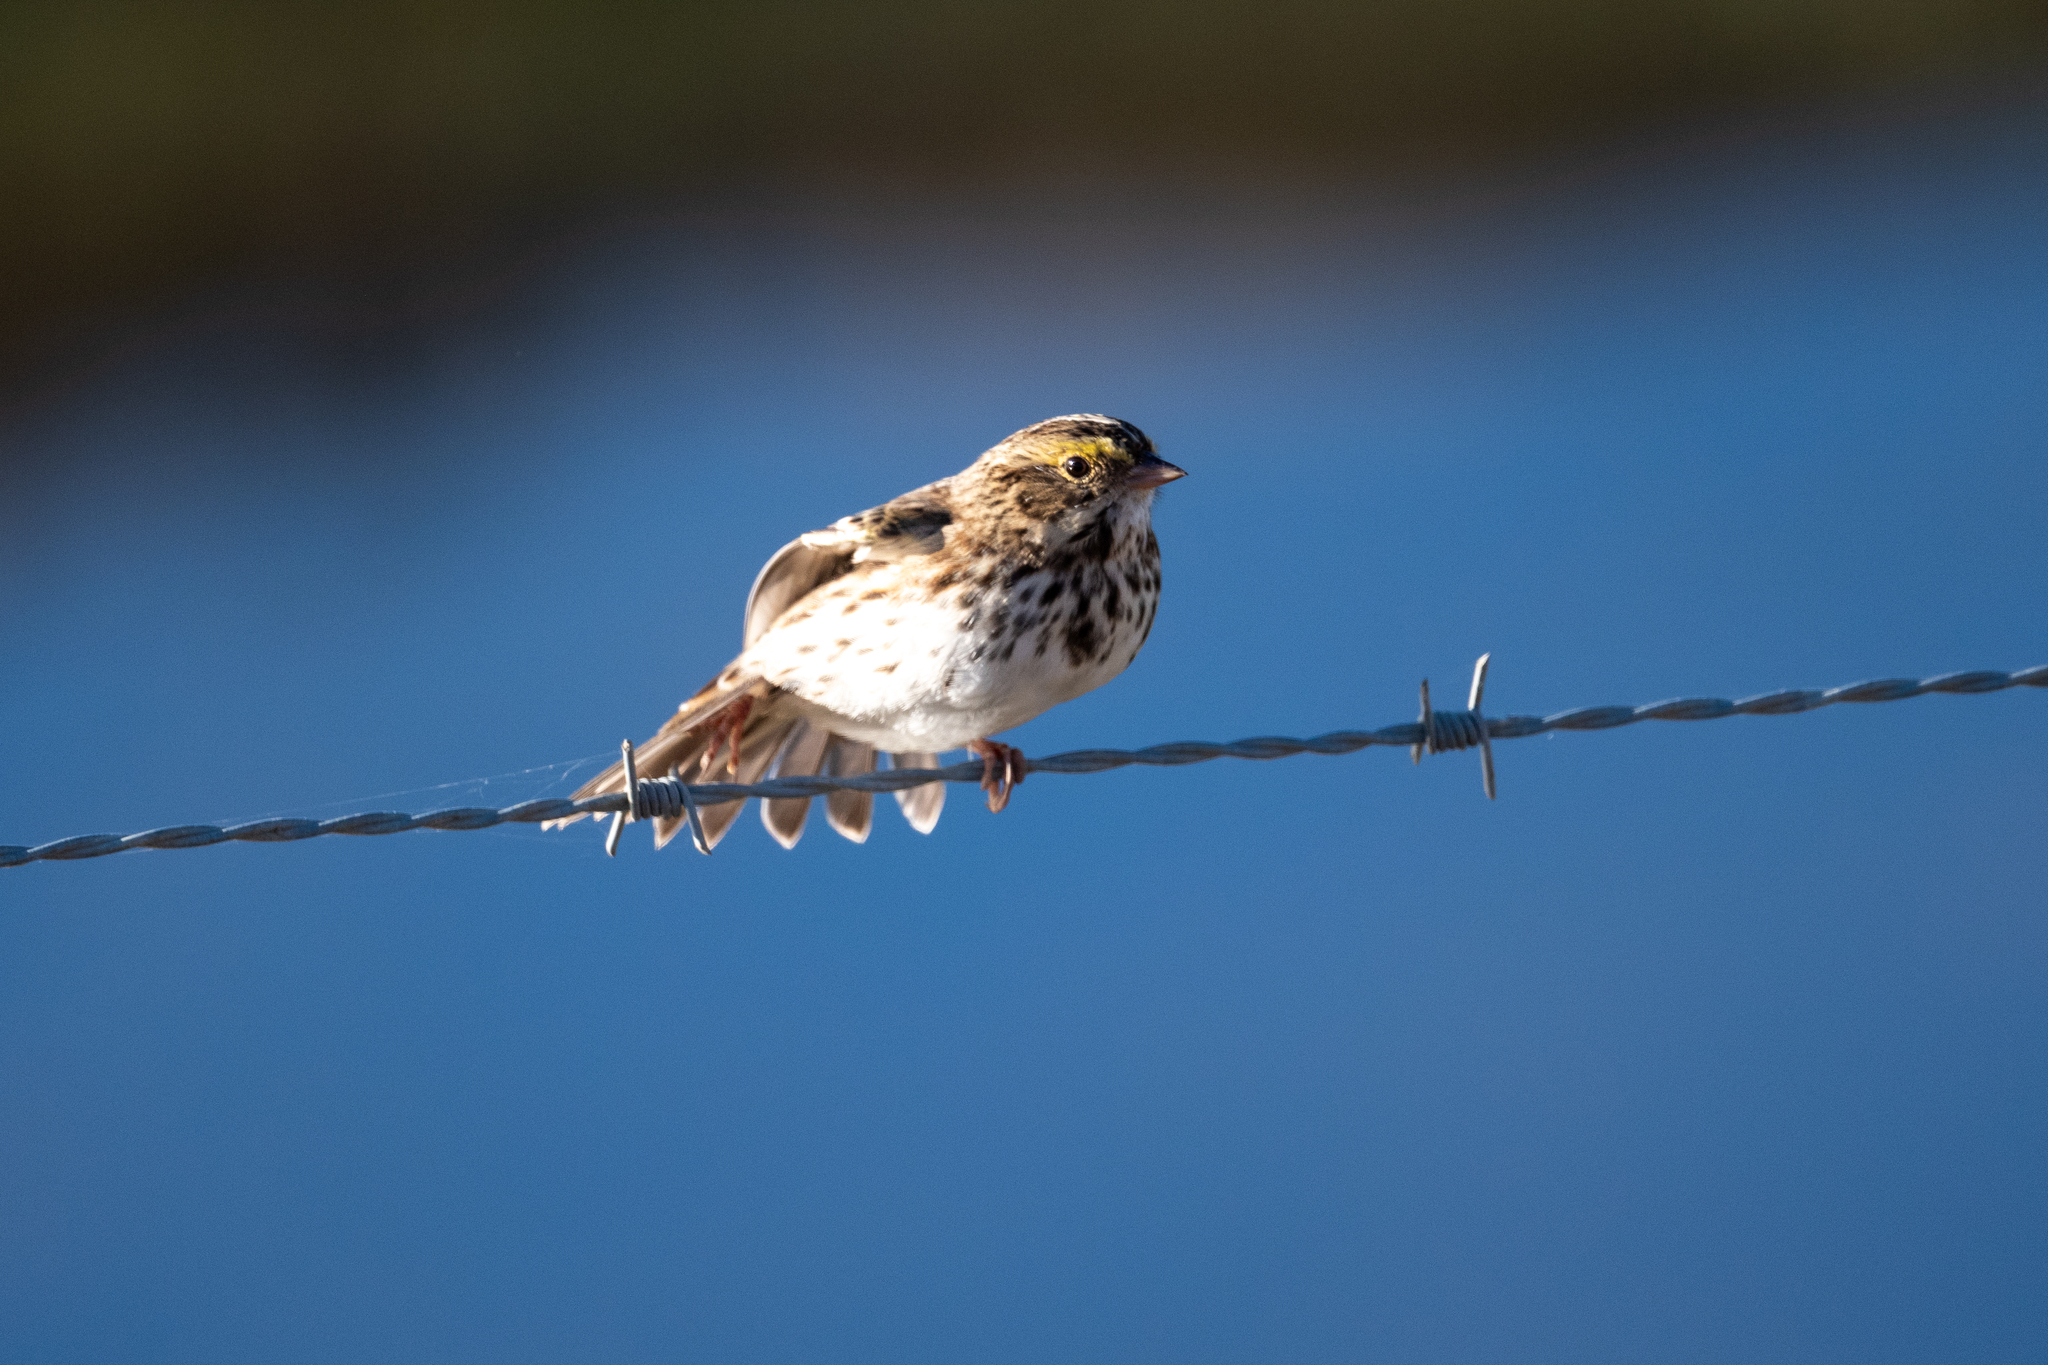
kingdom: Animalia
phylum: Chordata
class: Aves
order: Passeriformes
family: Passerellidae
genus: Passerculus
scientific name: Passerculus sandwichensis
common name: Savannah sparrow
